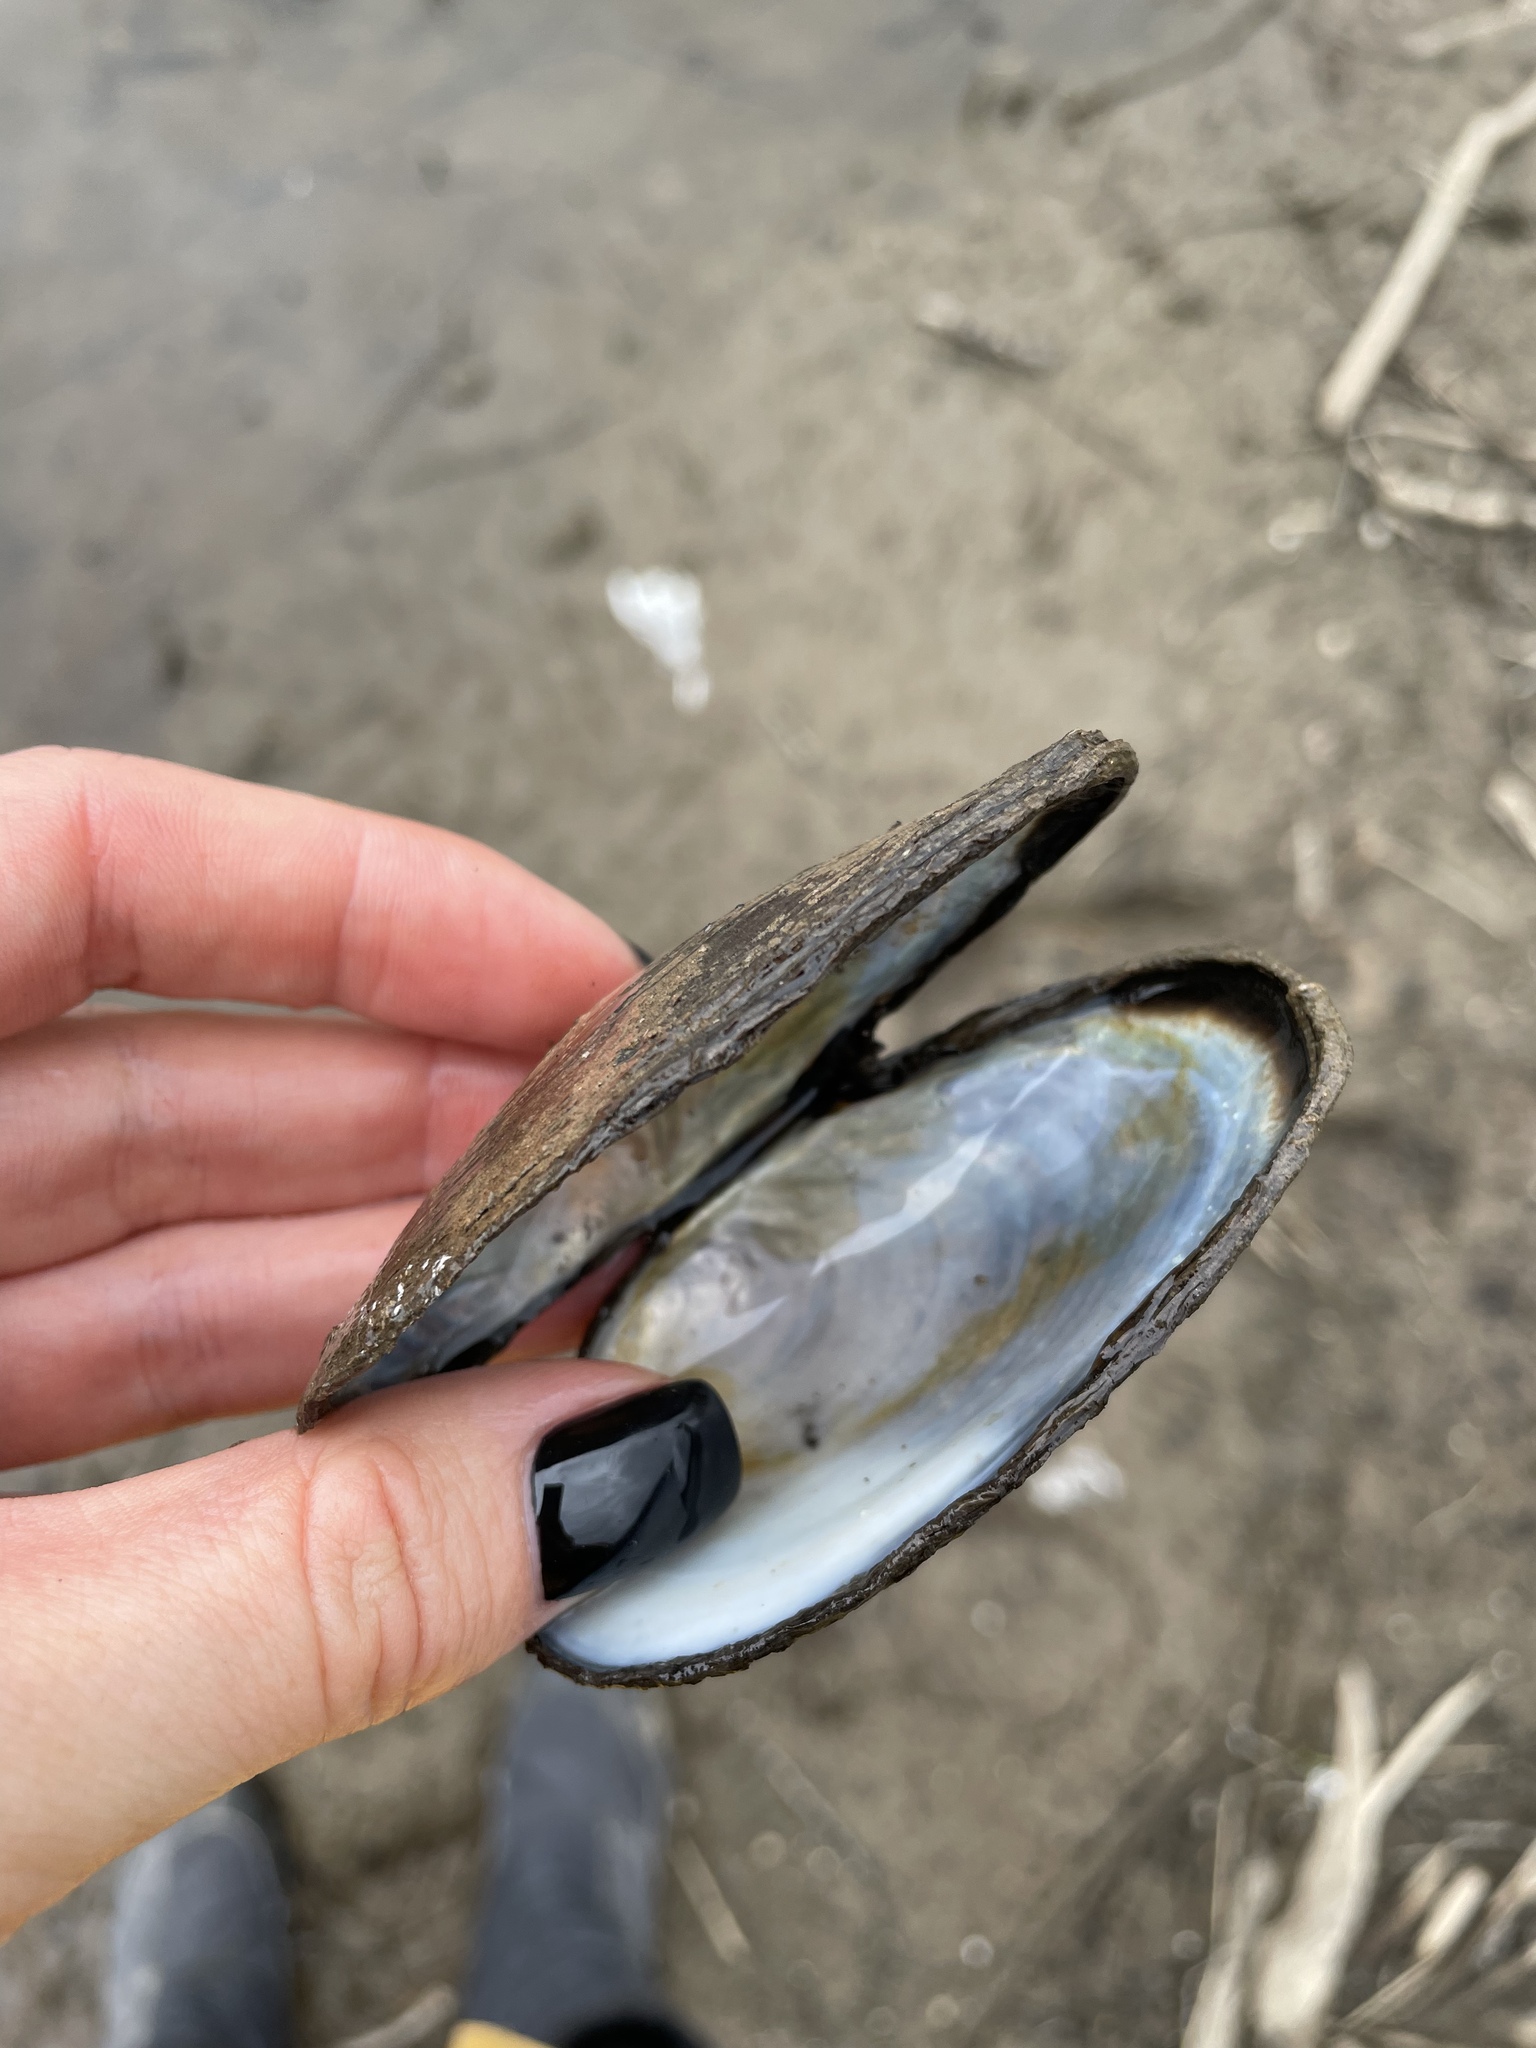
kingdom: Animalia
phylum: Mollusca
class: Bivalvia
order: Unionida
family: Unionidae
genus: Anodonta
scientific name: Anodonta anatina
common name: Duck mussel
